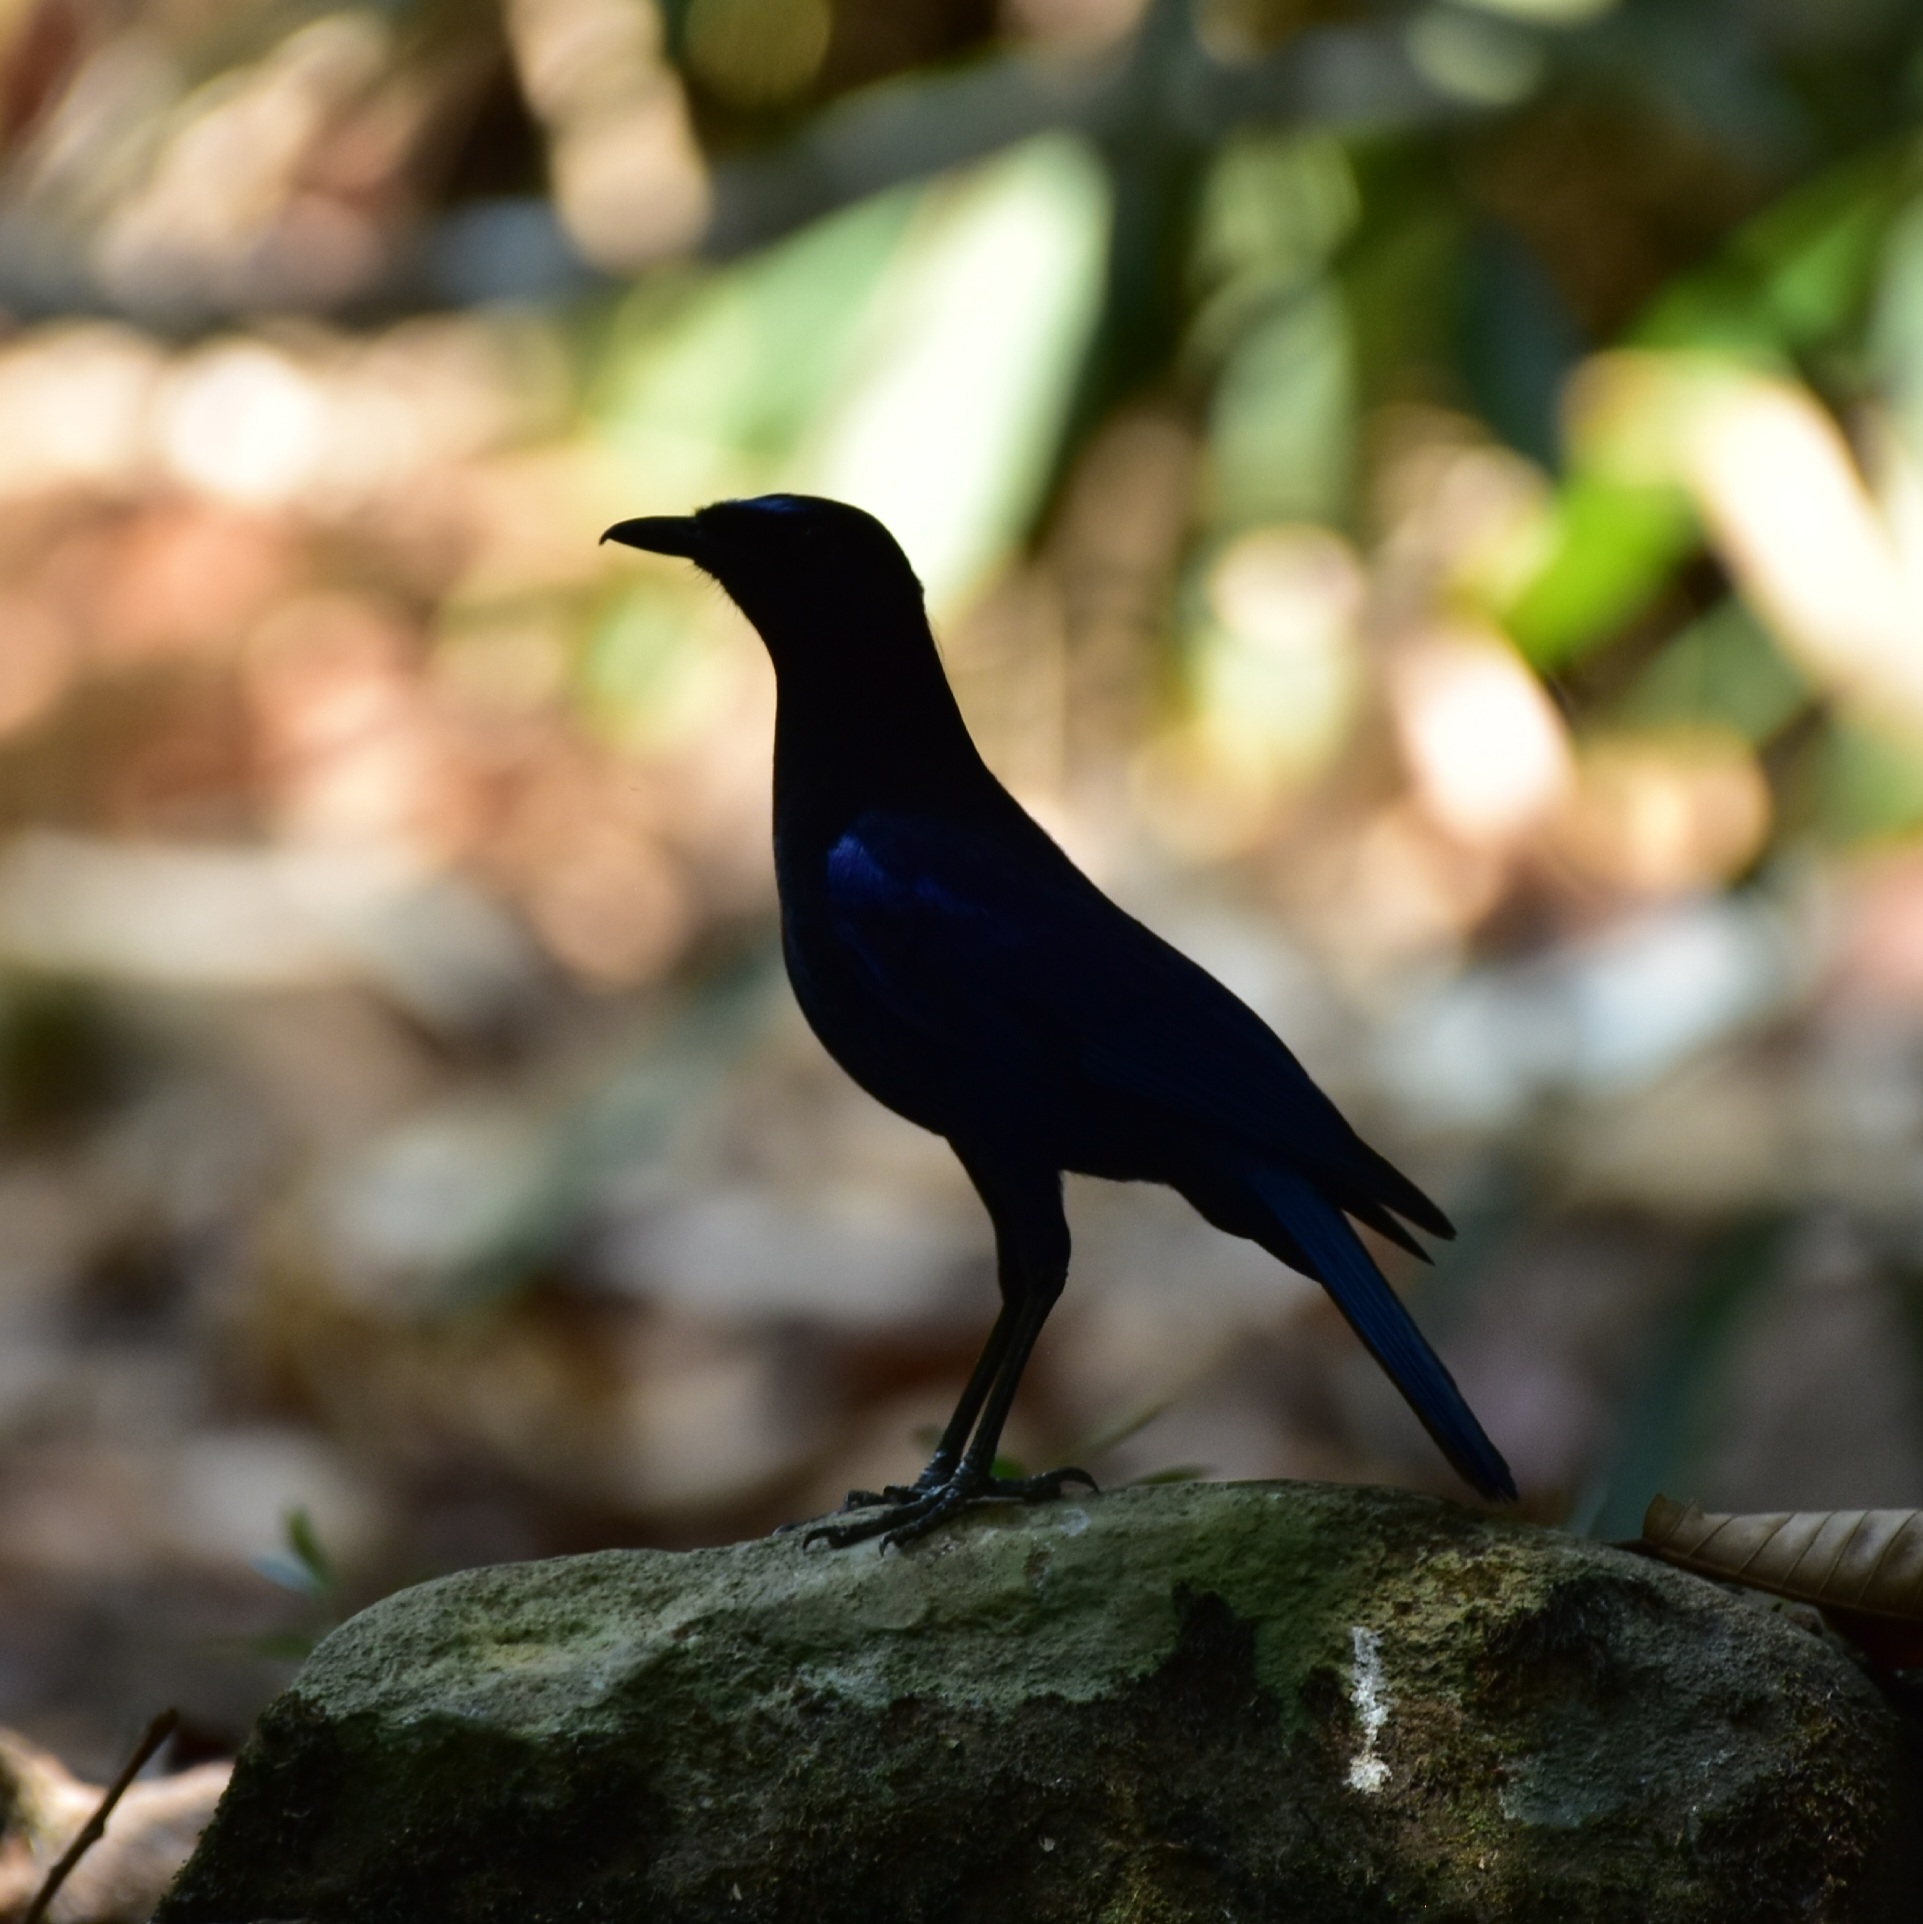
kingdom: Animalia
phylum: Chordata
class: Aves
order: Passeriformes
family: Muscicapidae
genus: Myophonus
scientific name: Myophonus horsfieldii
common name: Malabar whistling-thrush
